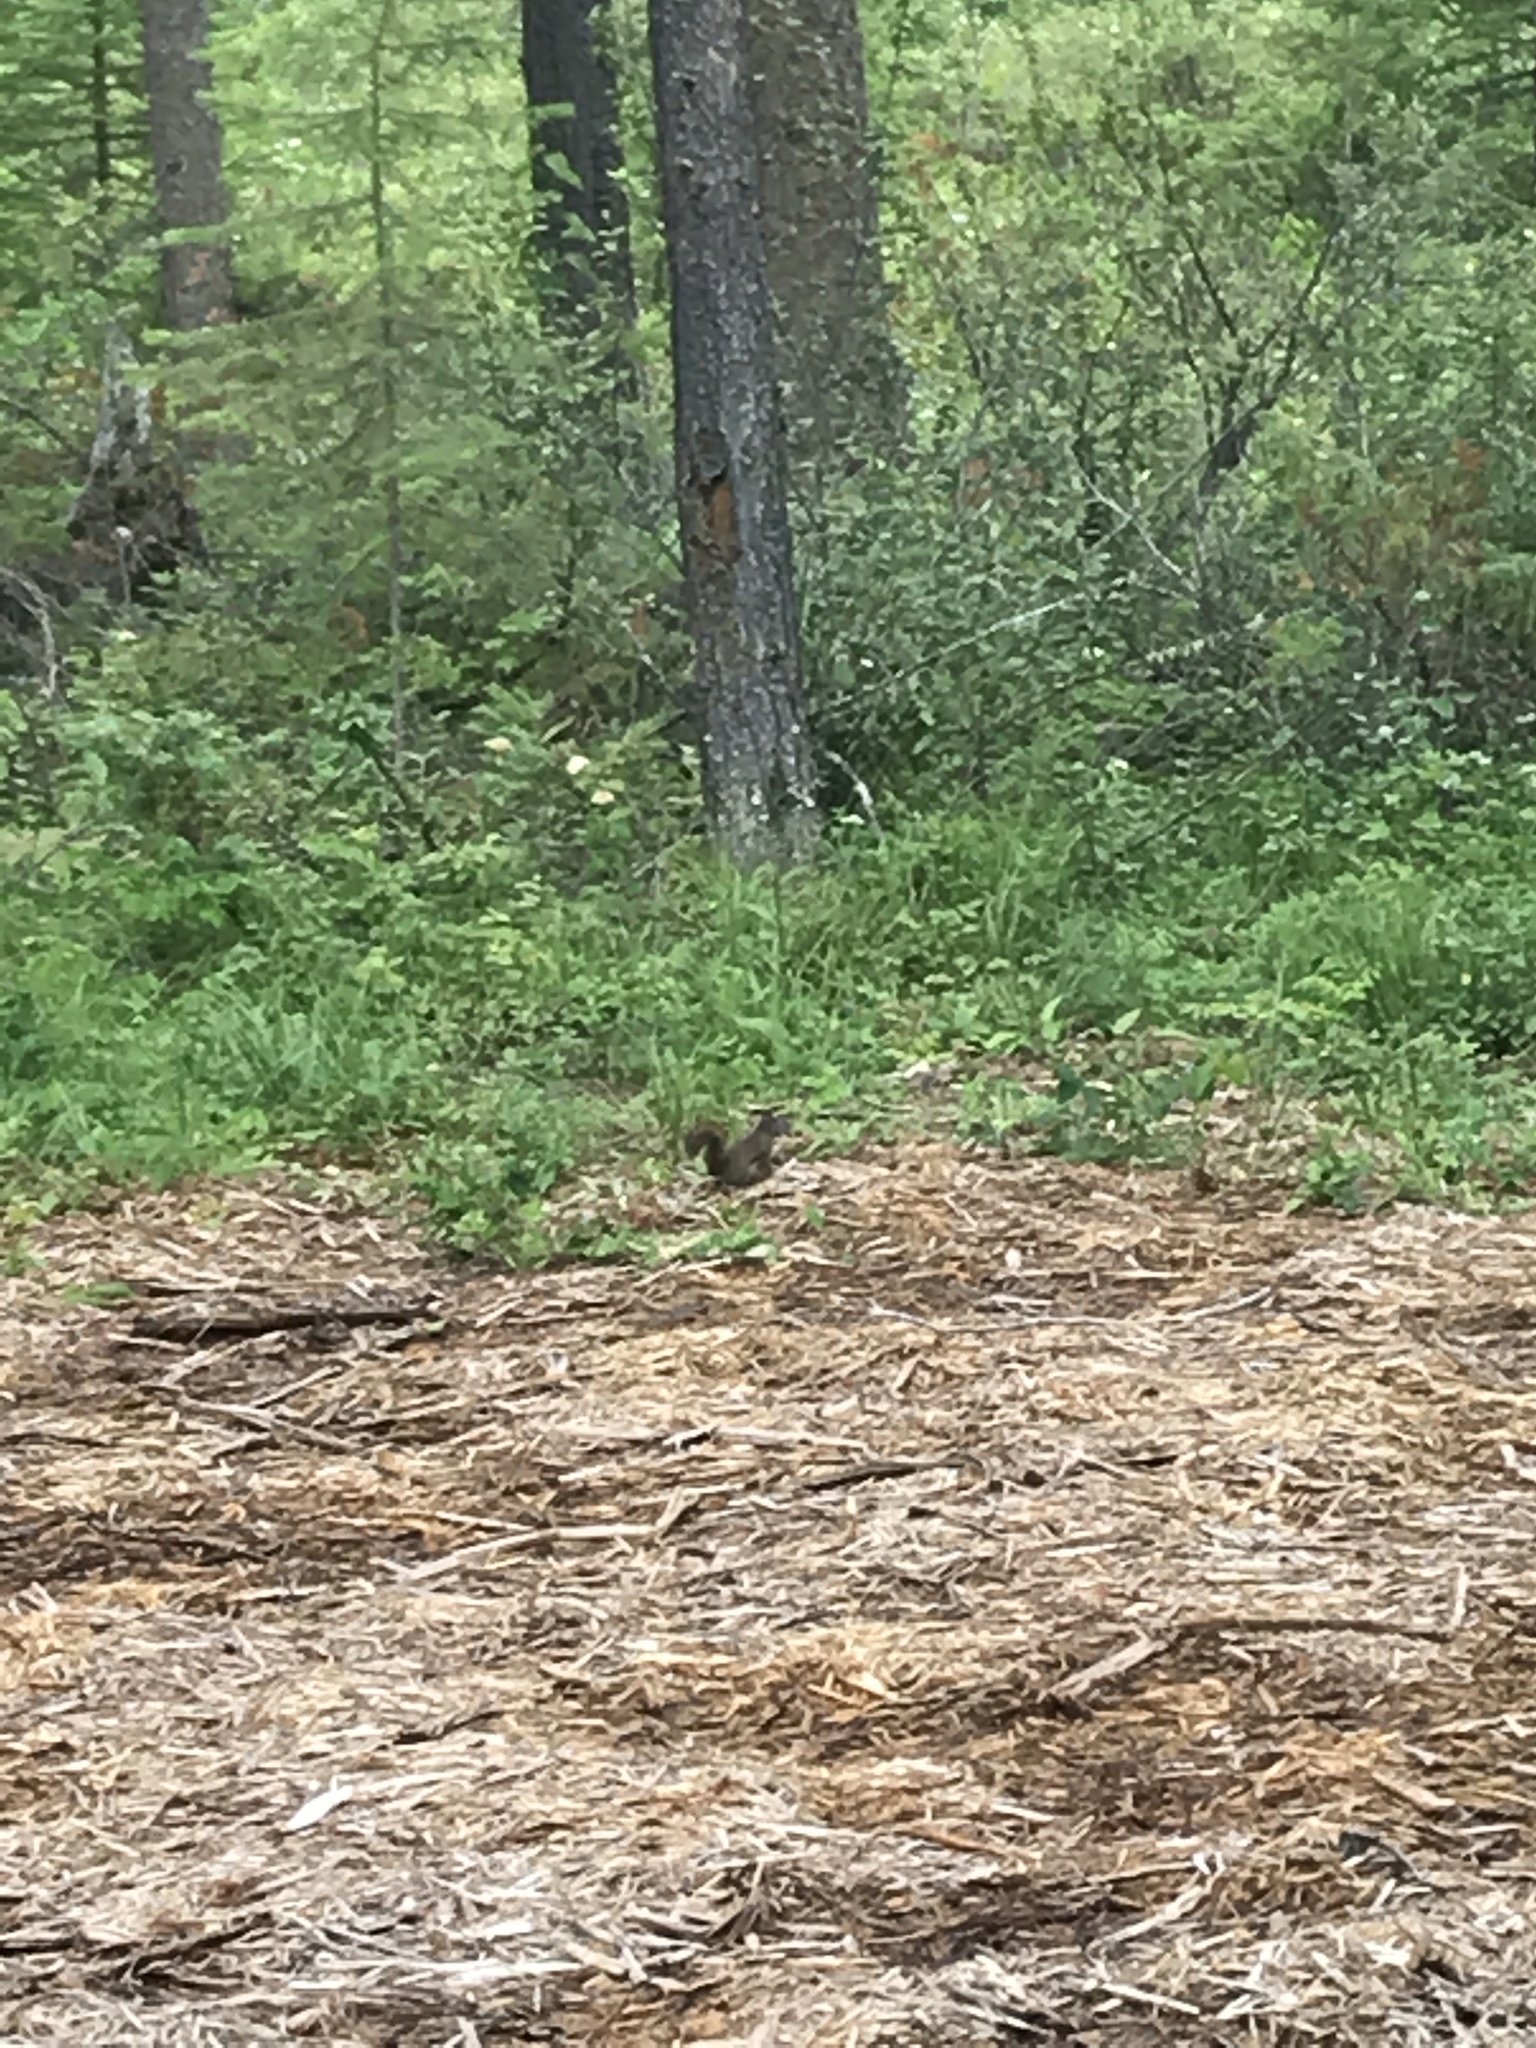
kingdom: Animalia
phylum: Chordata
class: Mammalia
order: Rodentia
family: Sciuridae
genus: Tamiasciurus
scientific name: Tamiasciurus hudsonicus
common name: Red squirrel
